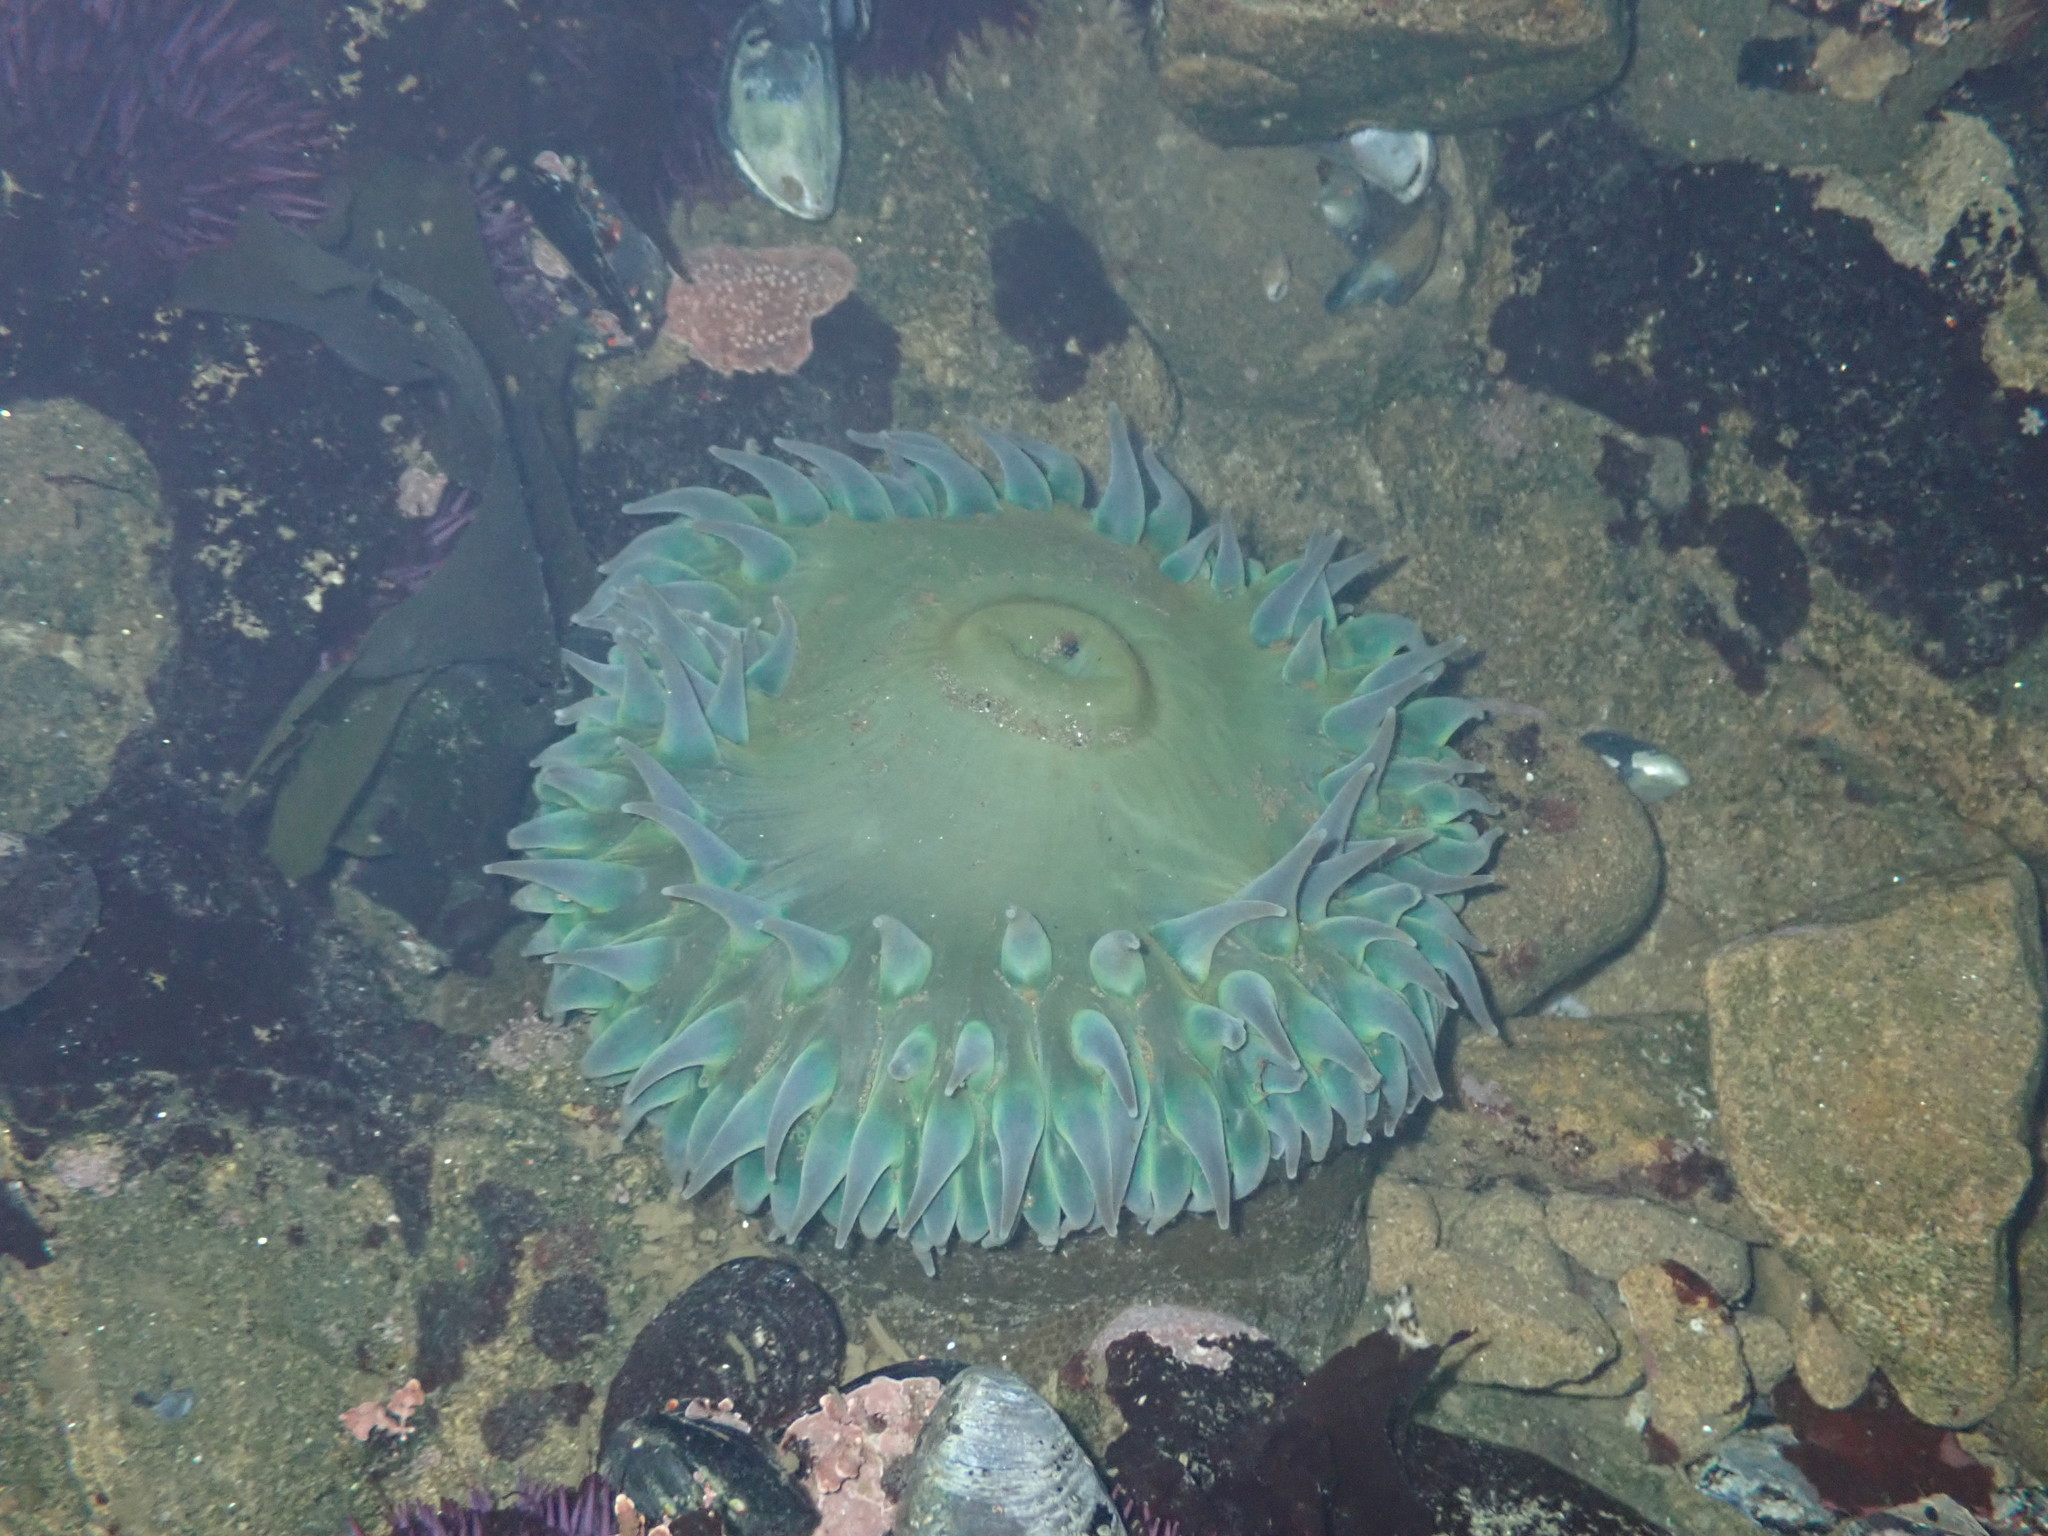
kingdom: Animalia
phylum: Cnidaria
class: Anthozoa
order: Actiniaria
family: Actiniidae
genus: Anthopleura
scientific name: Anthopleura xanthogrammica
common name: Giant green anemone
